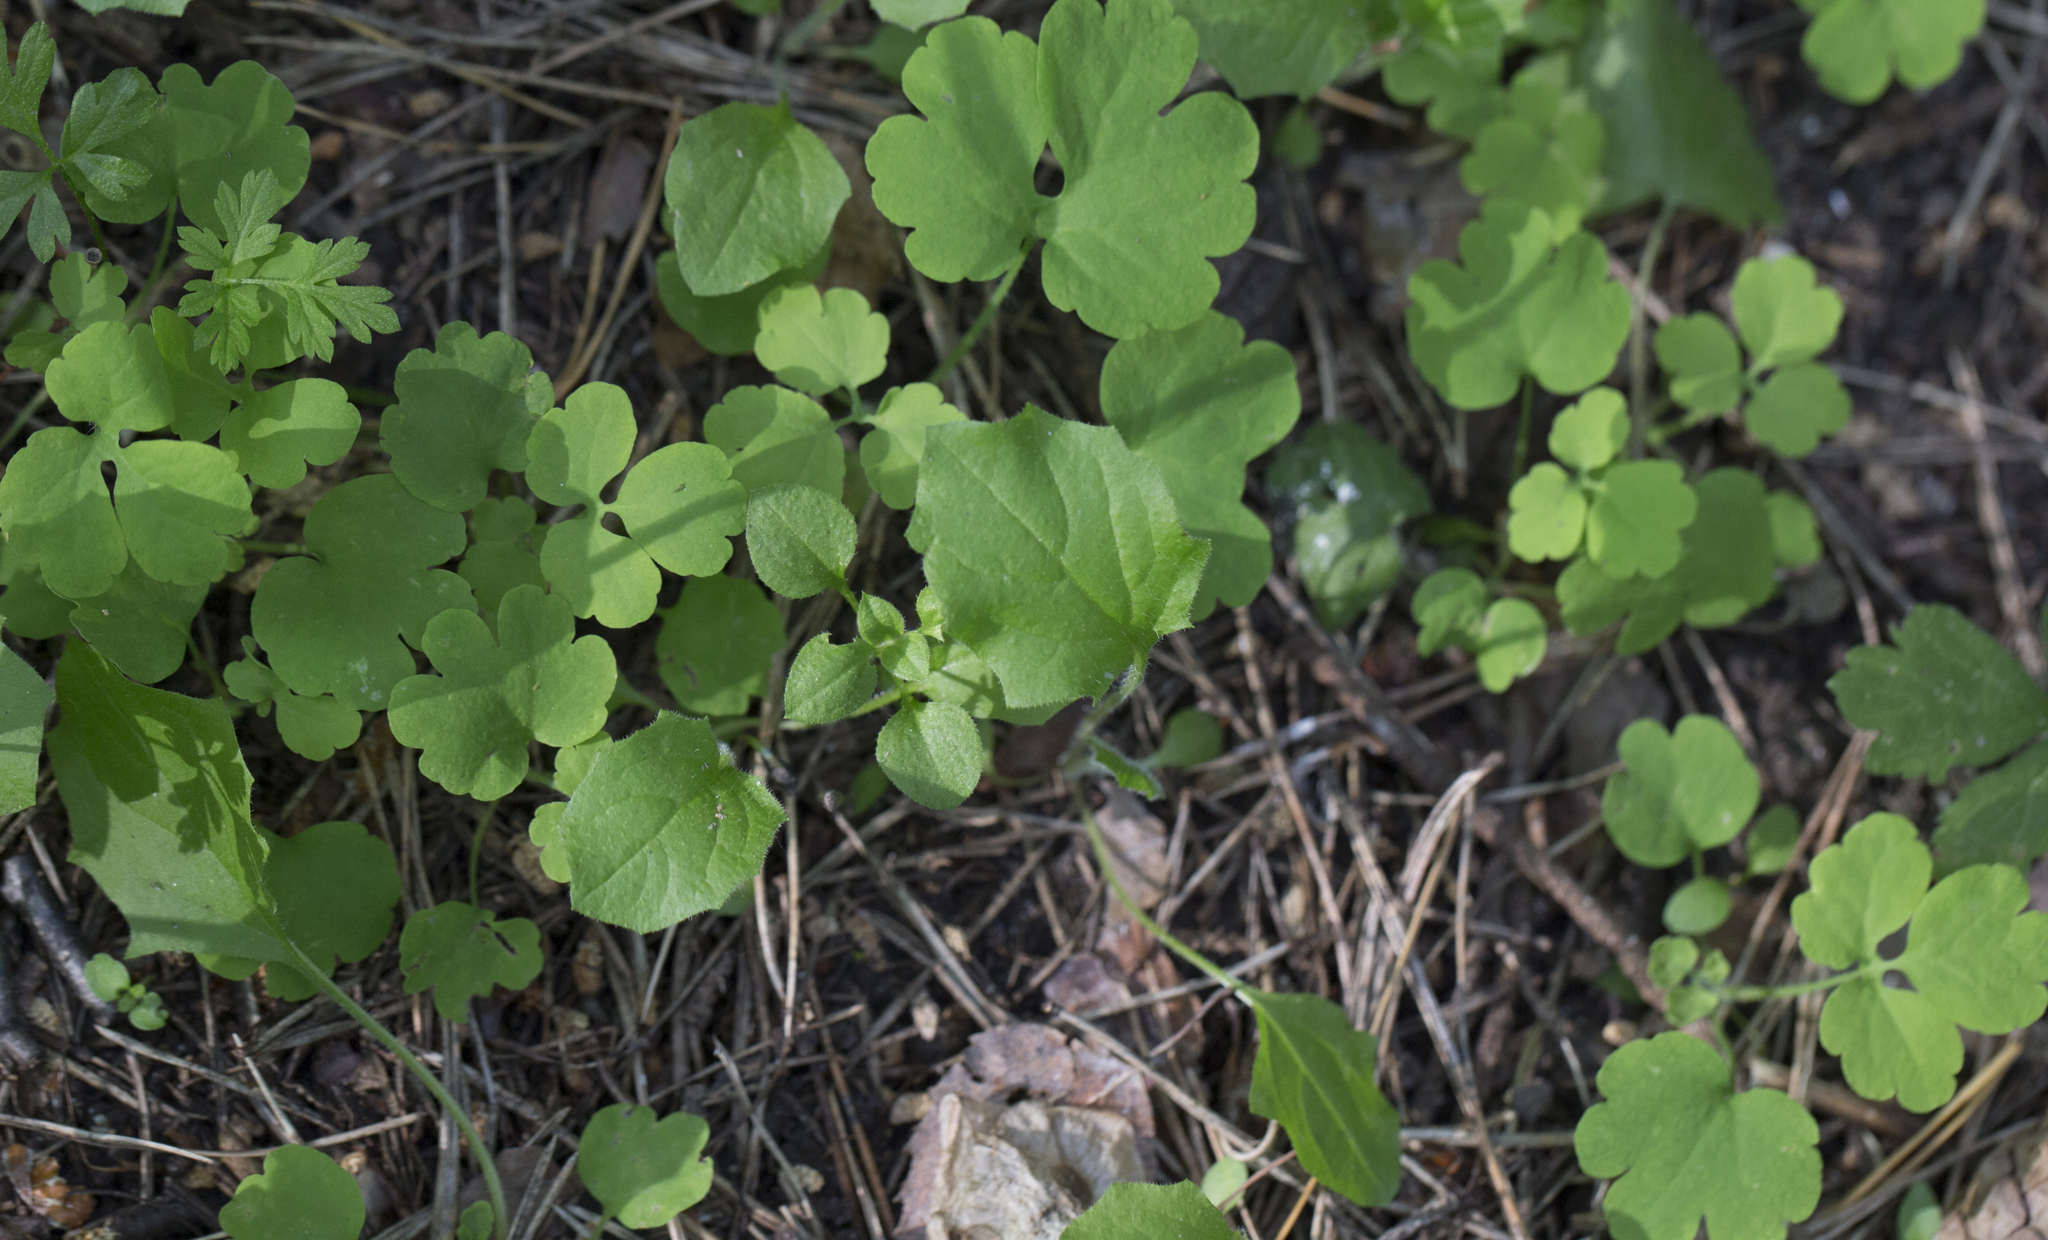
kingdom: Plantae
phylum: Tracheophyta
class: Magnoliopsida
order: Ranunculales
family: Papaveraceae
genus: Chelidonium
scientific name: Chelidonium majus
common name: Greater celandine
